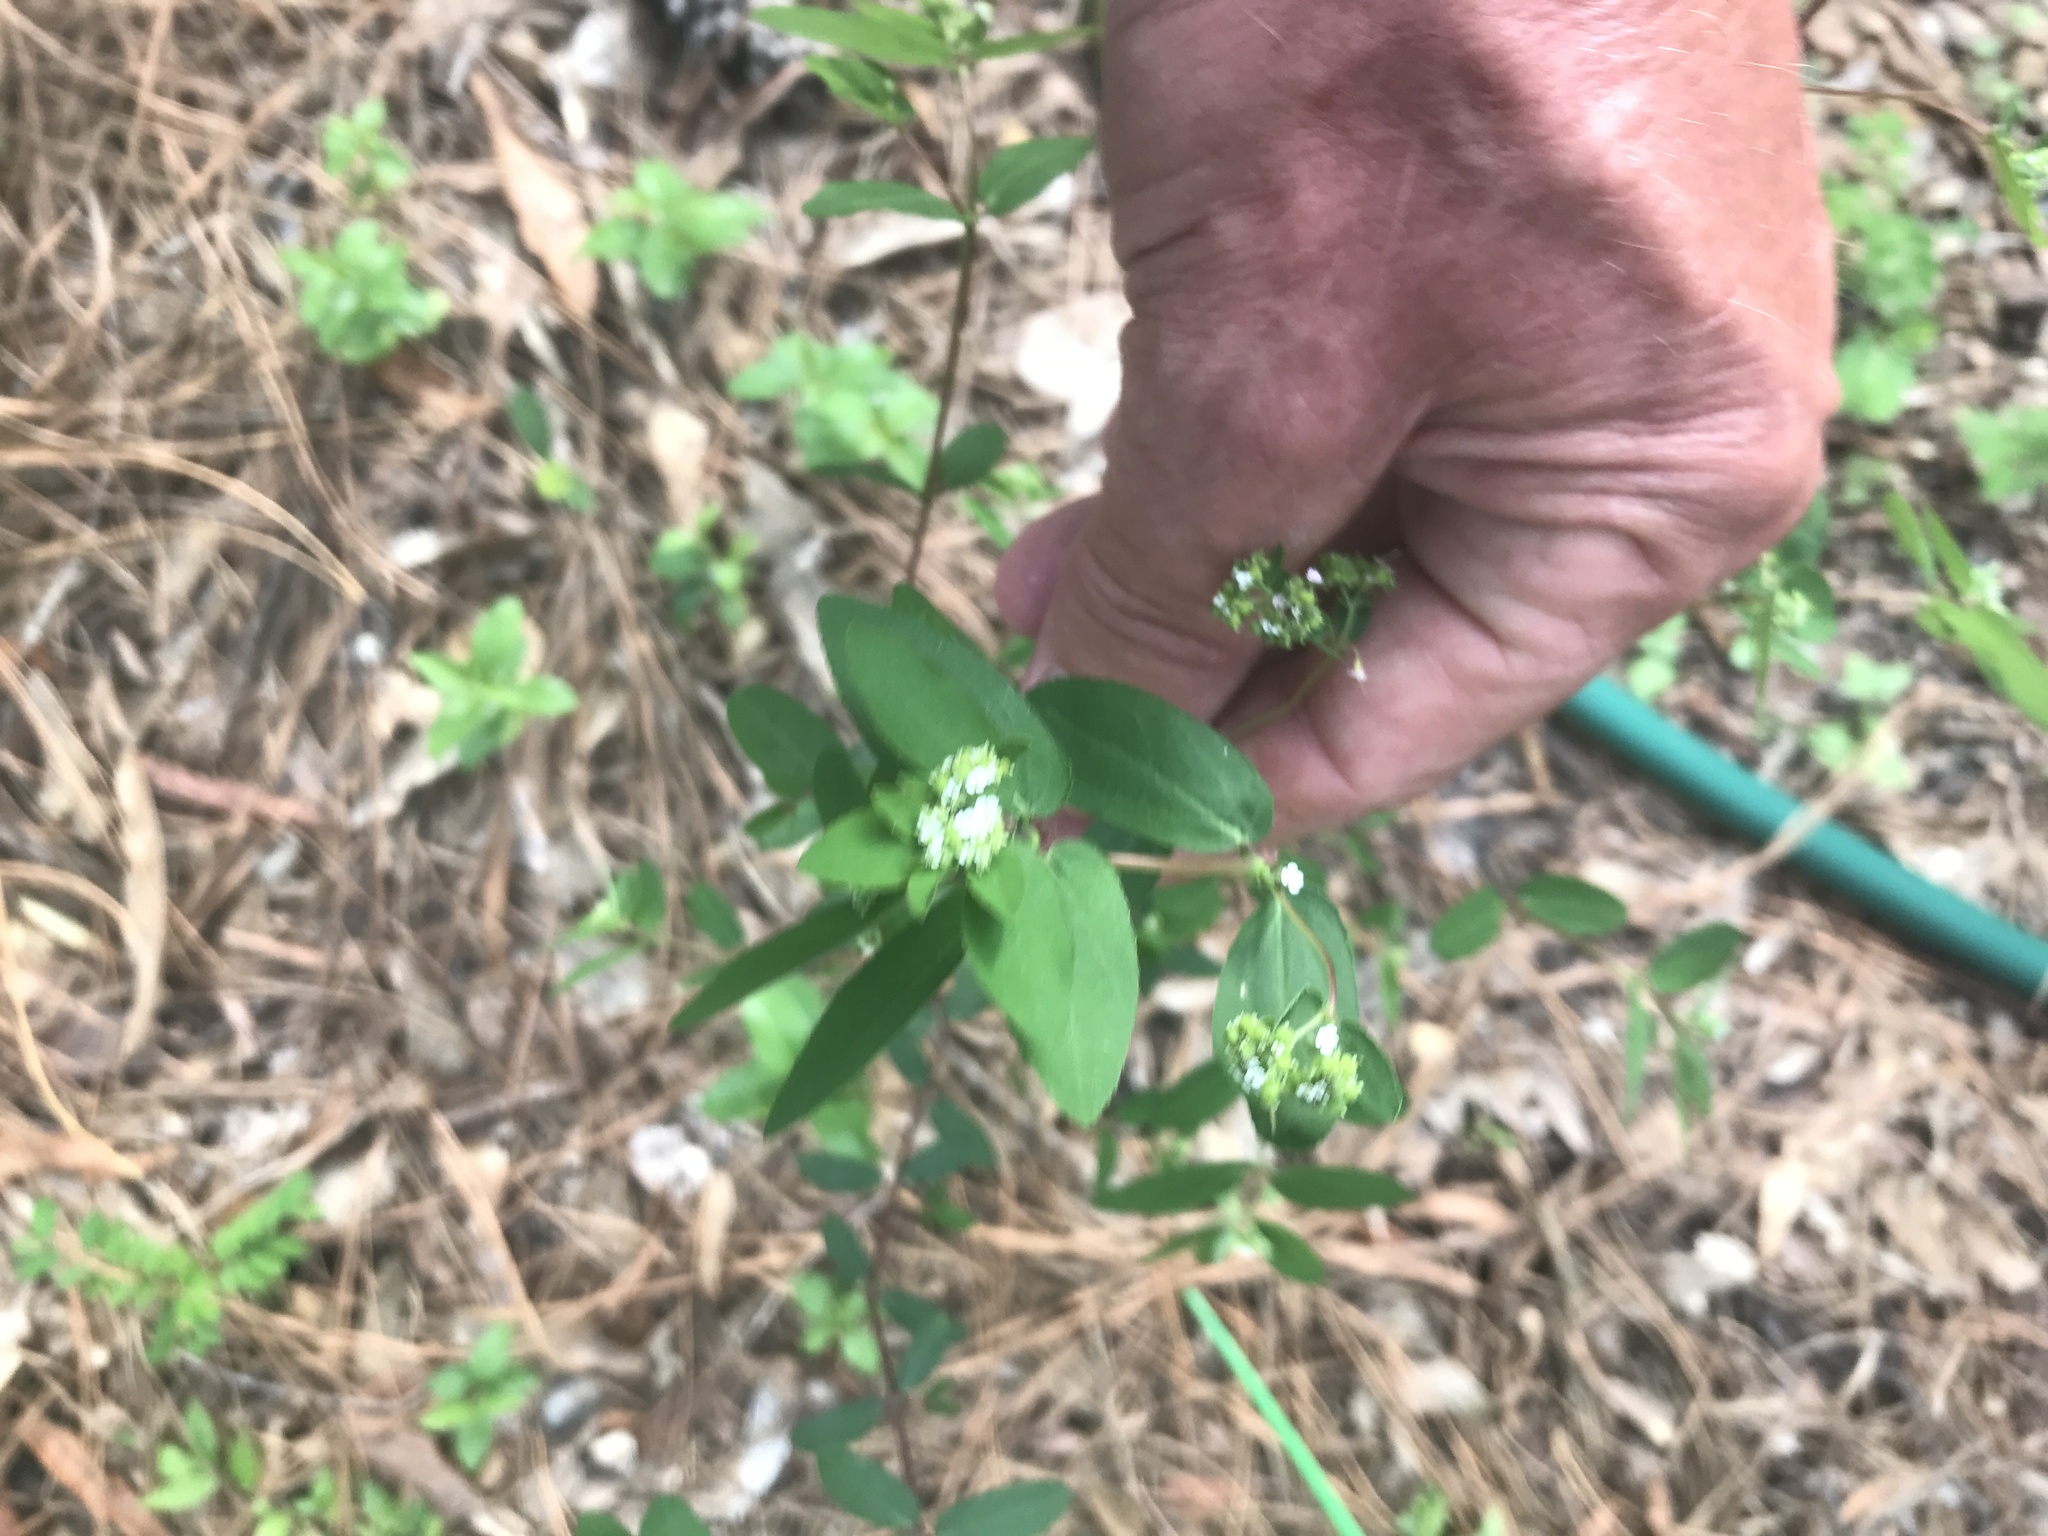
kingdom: Plantae
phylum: Tracheophyta
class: Magnoliopsida
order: Malpighiales
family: Euphorbiaceae
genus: Euphorbia
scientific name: Euphorbia hypericifolia
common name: Graceful sandmat
